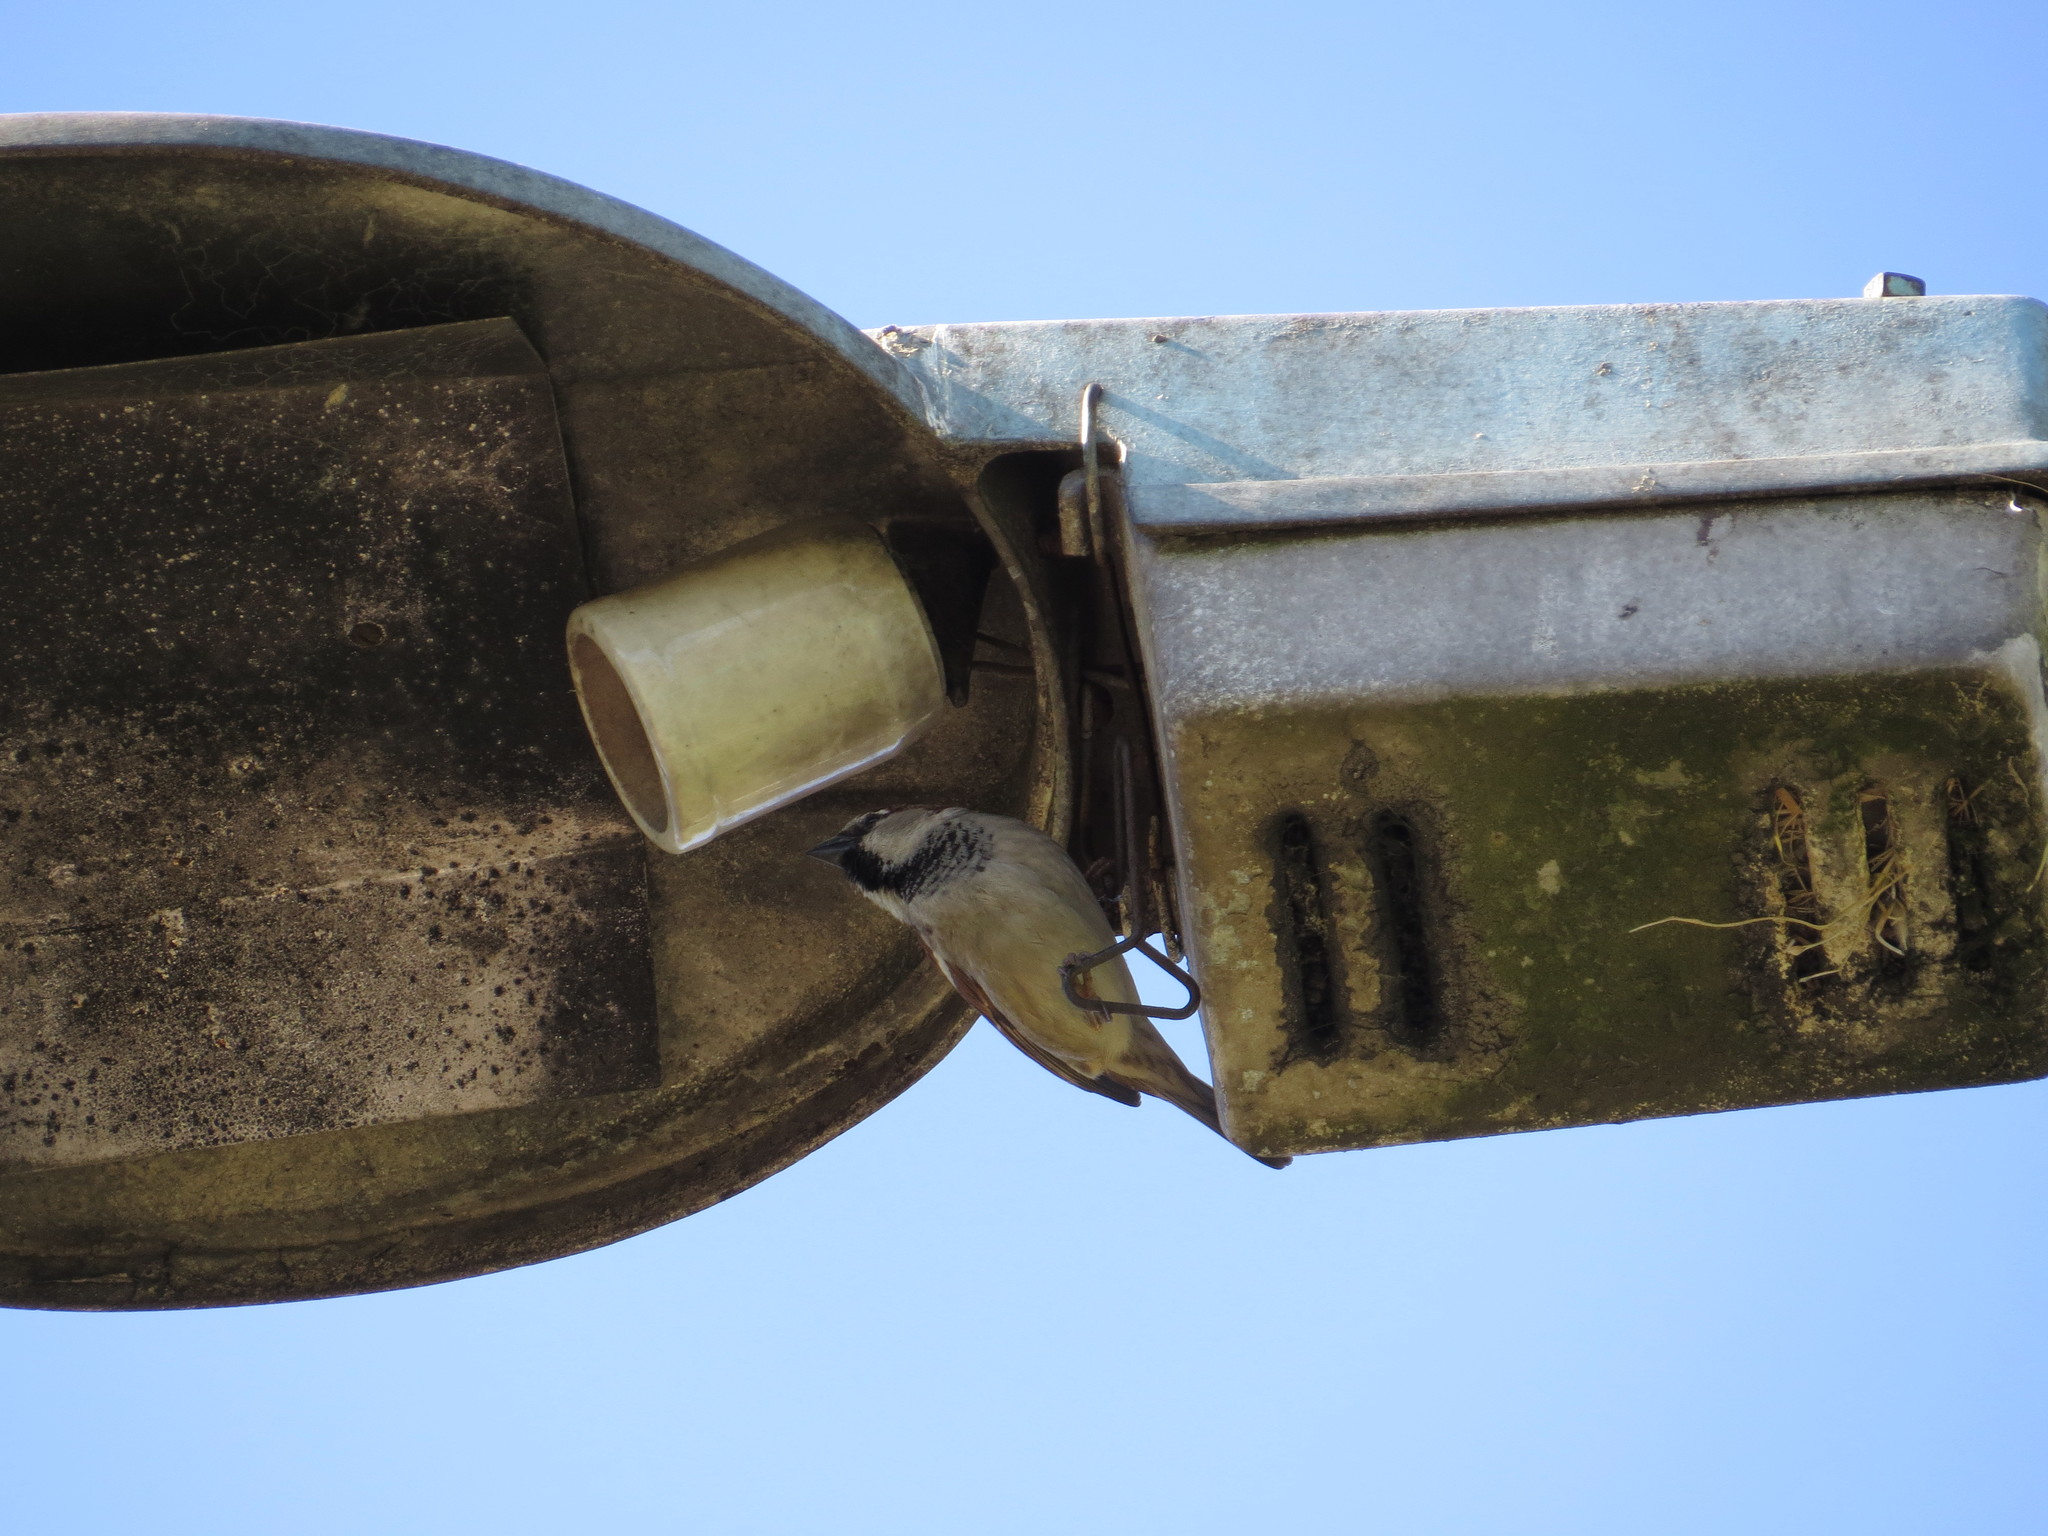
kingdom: Animalia
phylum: Chordata
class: Aves
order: Passeriformes
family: Passeridae
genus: Passer
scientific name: Passer domesticus
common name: House sparrow
